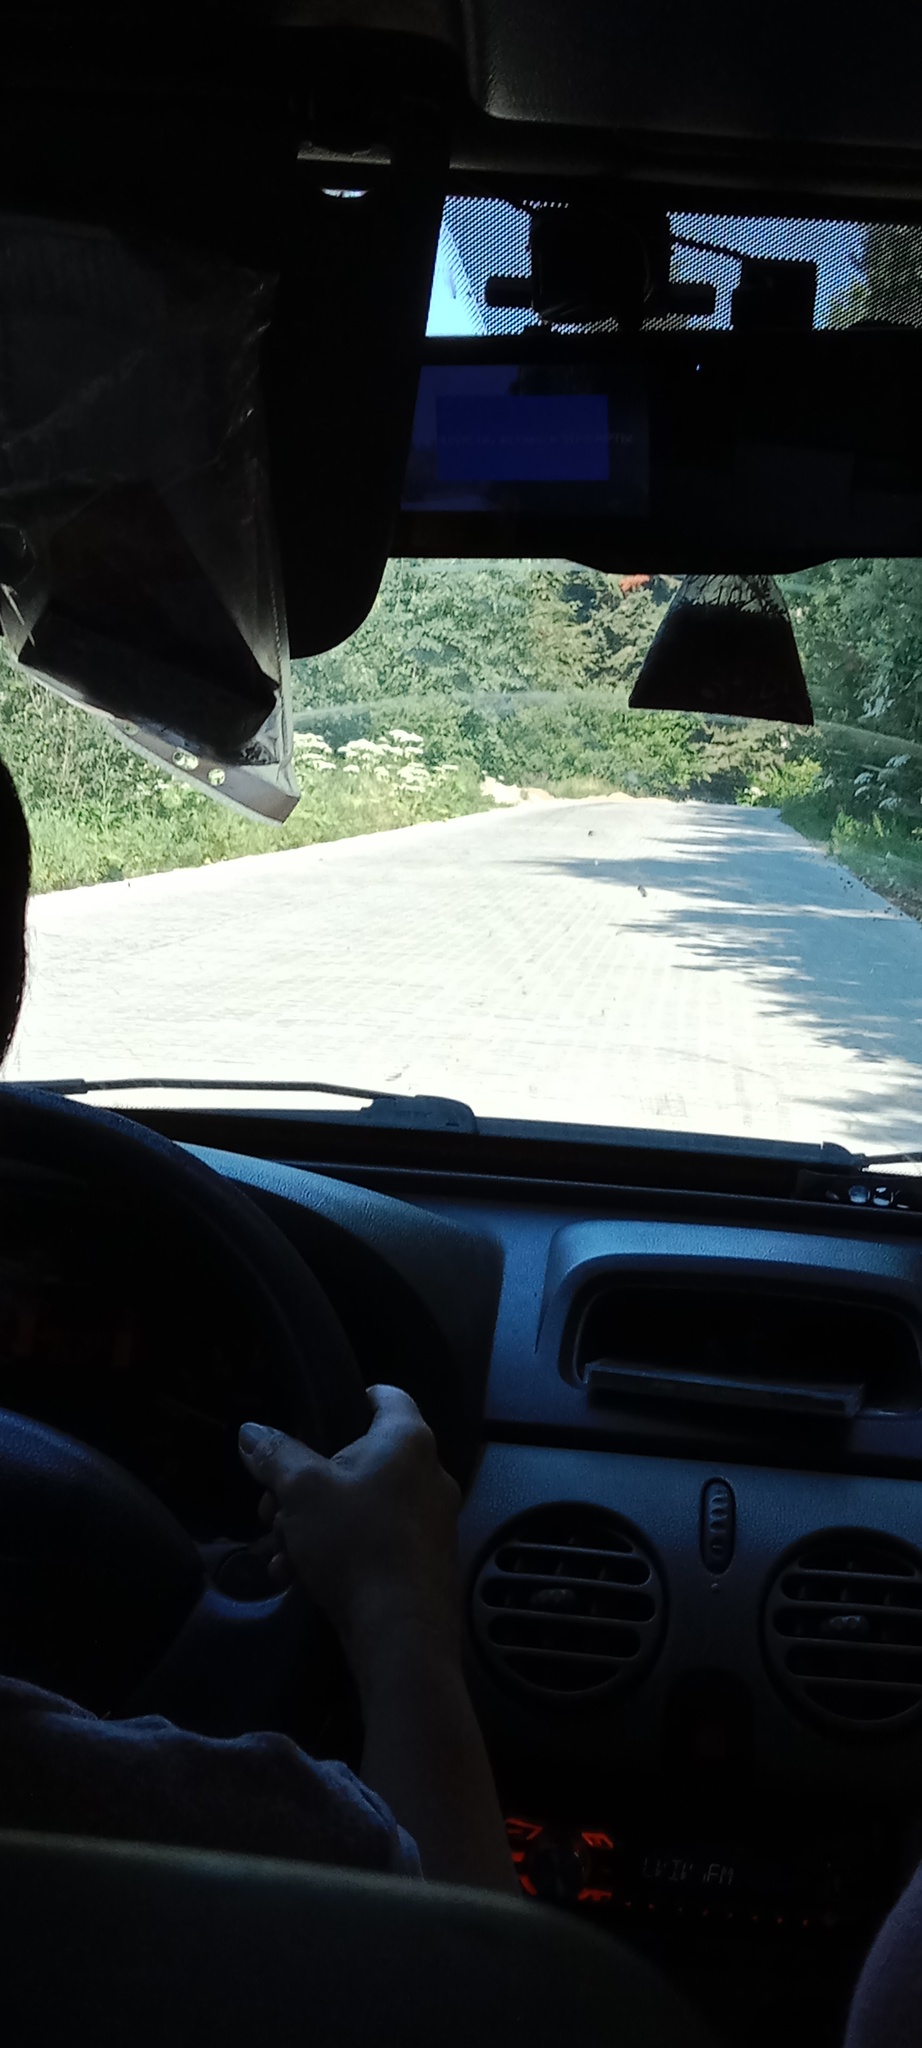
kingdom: Plantae
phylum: Tracheophyta
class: Magnoliopsida
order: Apiales
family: Apiaceae
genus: Heracleum
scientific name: Heracleum sosnowskyi
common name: Sosnowsky's hogweed
